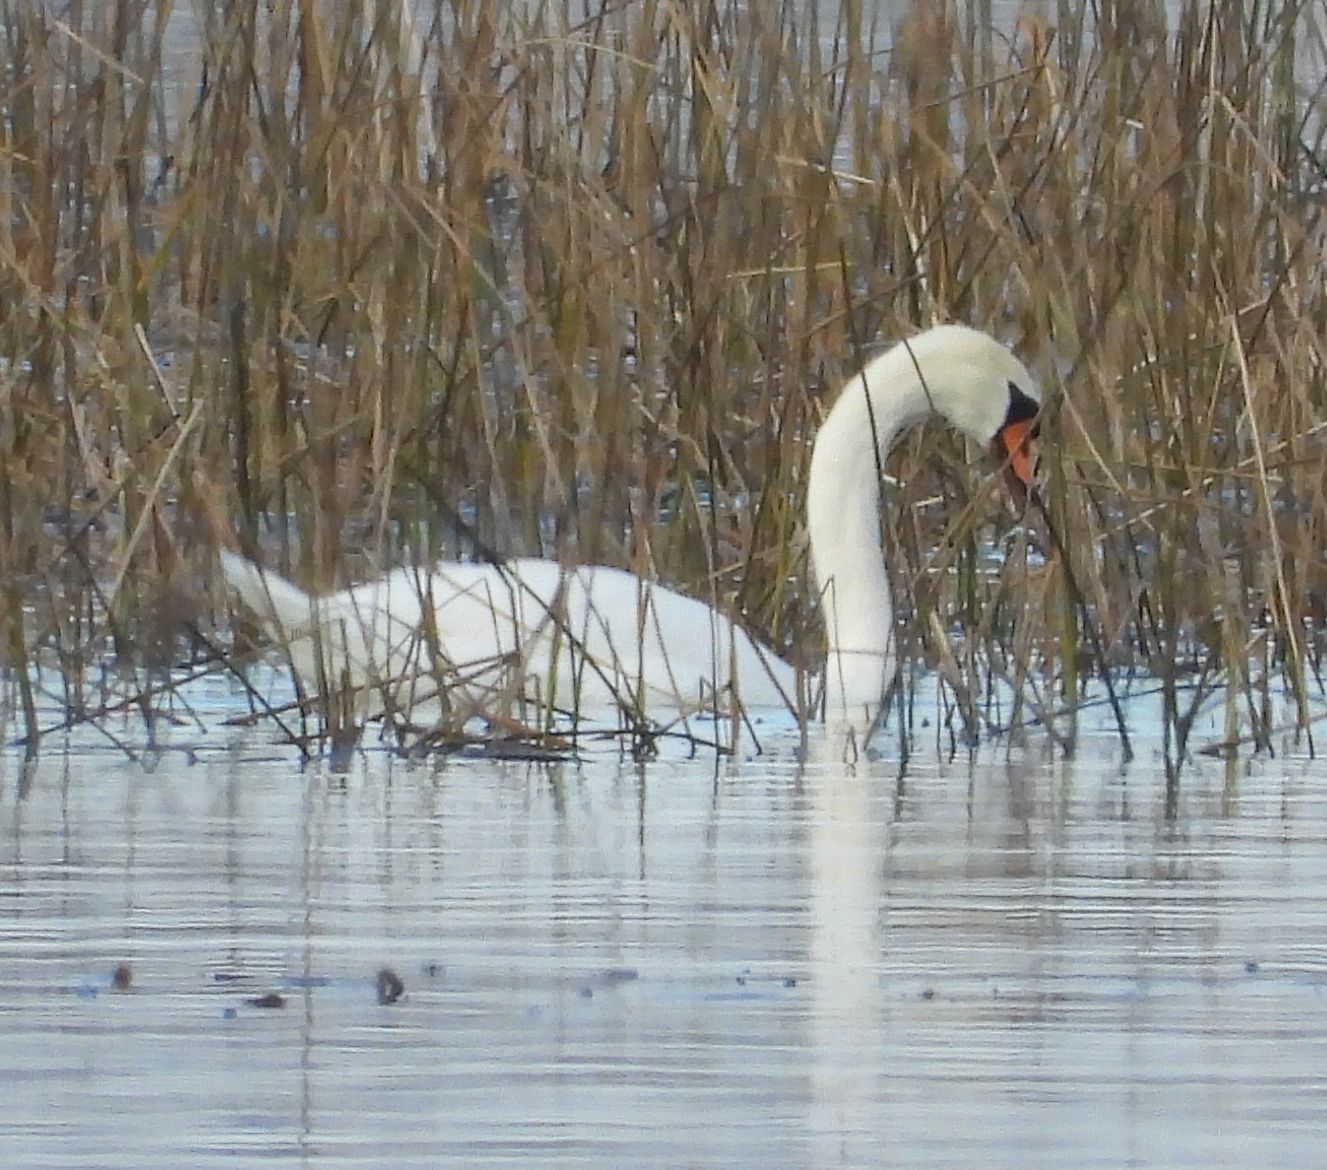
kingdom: Animalia
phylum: Chordata
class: Aves
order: Anseriformes
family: Anatidae
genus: Cygnus
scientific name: Cygnus olor
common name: Mute swan
